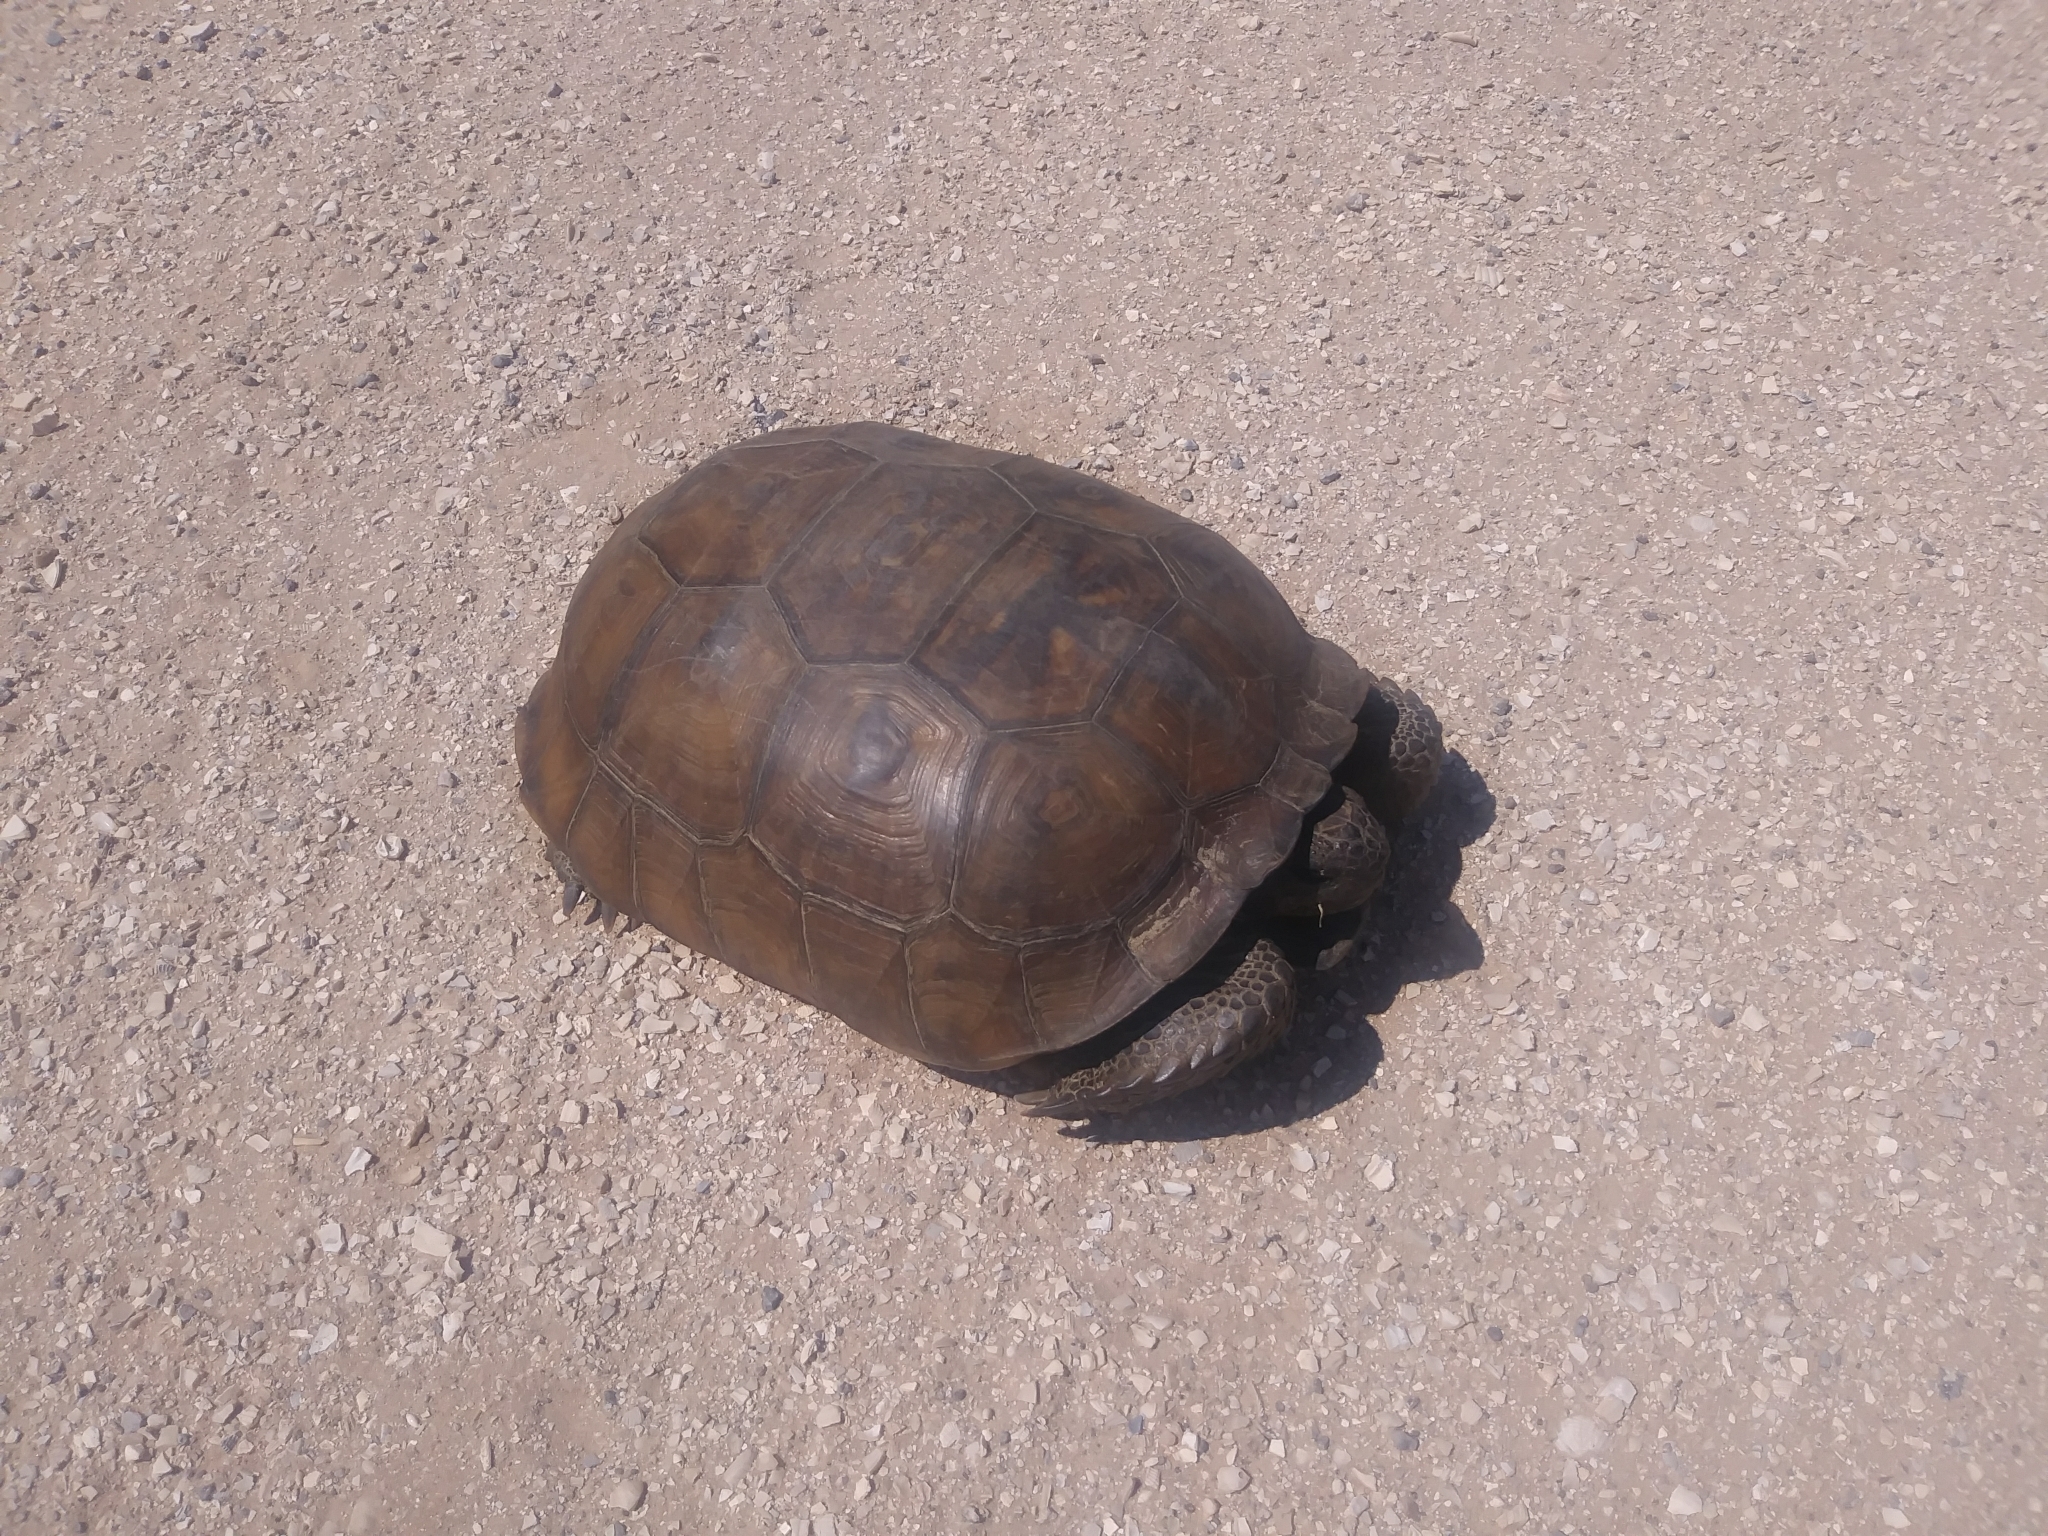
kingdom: Animalia
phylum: Chordata
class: Testudines
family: Testudinidae
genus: Gopherus
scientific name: Gopherus polyphemus
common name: Florida gopher tortoise
